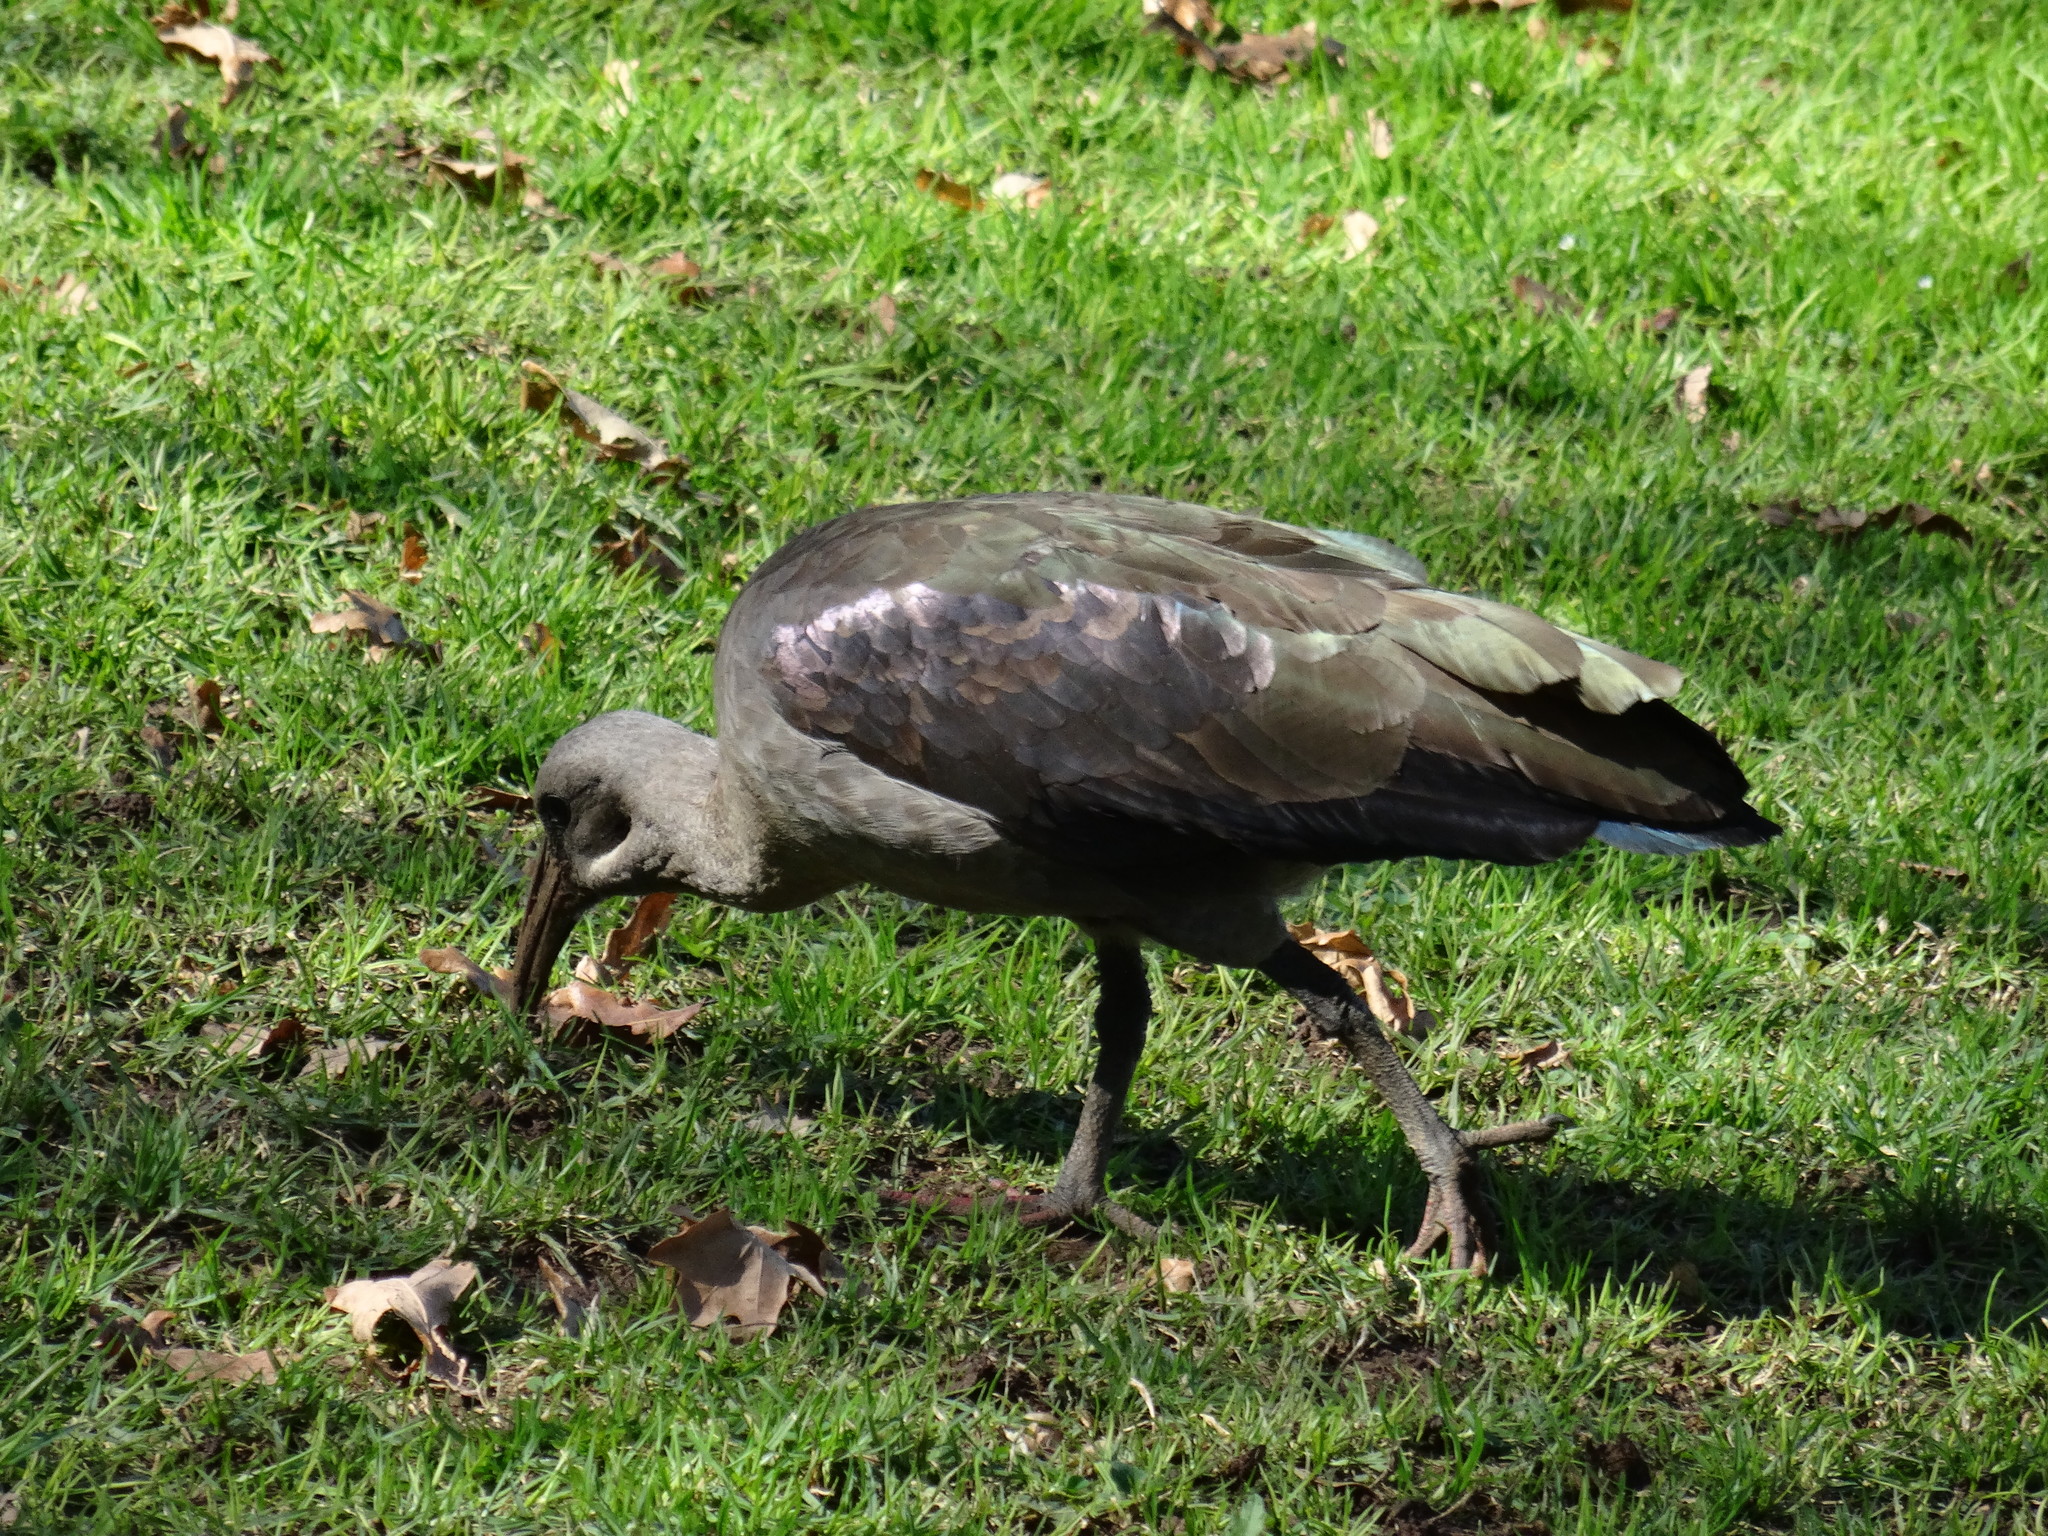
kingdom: Animalia
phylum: Chordata
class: Aves
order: Pelecaniformes
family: Threskiornithidae
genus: Bostrychia
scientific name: Bostrychia hagedash
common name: Hadada ibis
